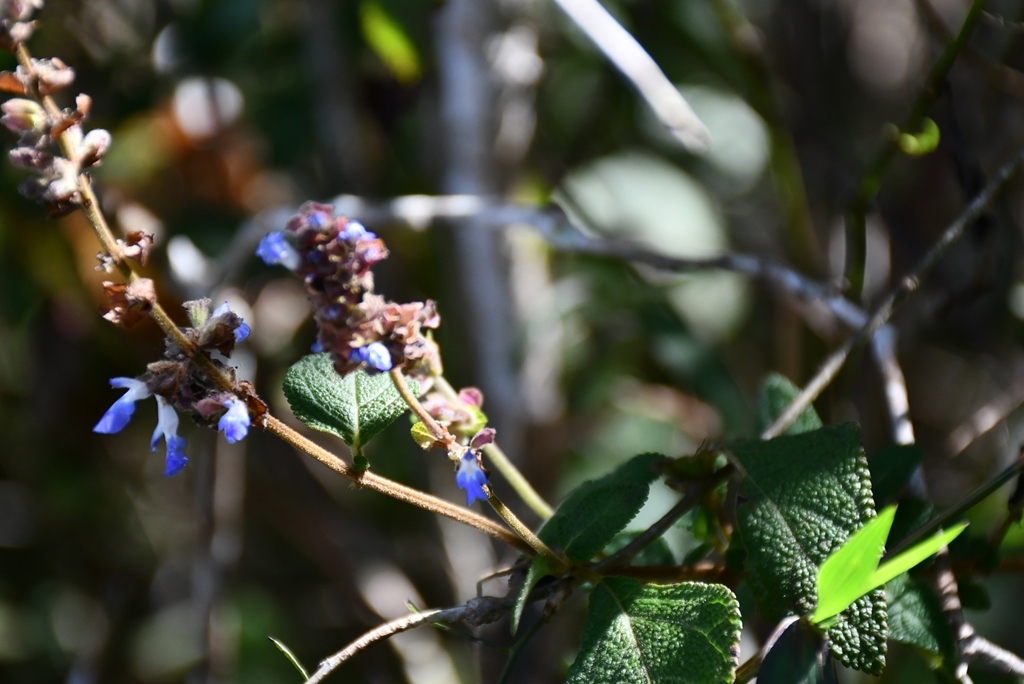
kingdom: Plantae
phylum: Tracheophyta
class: Magnoliopsida
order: Lamiales
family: Lamiaceae
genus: Salvia
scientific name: Salvia mocinoi
